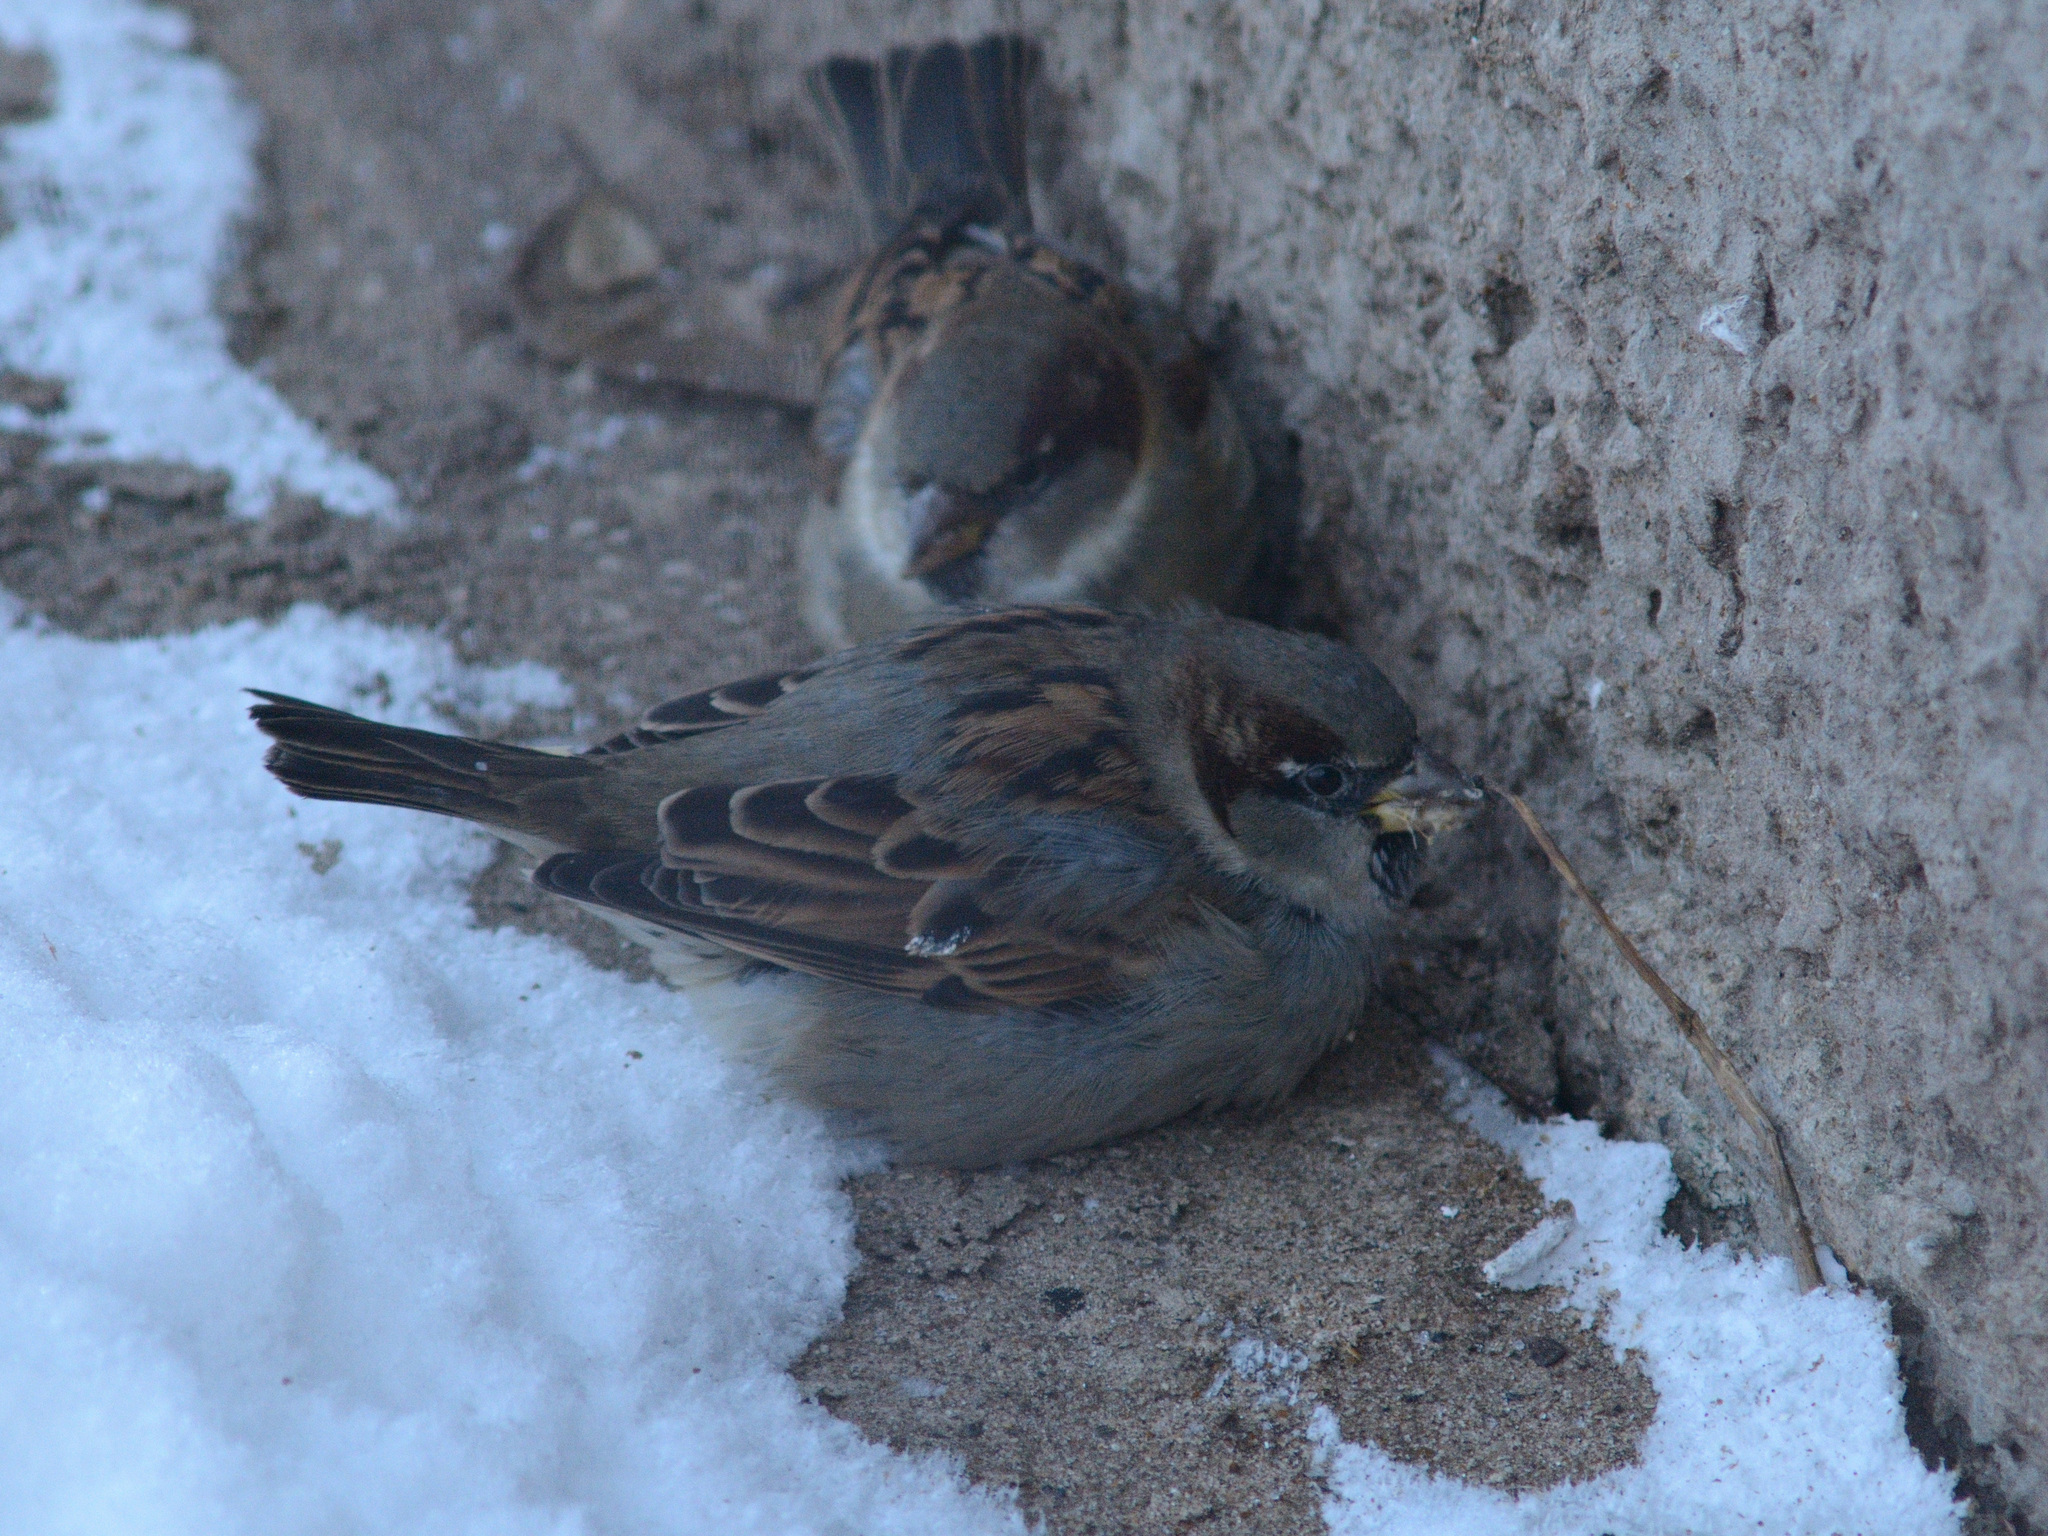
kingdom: Animalia
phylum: Chordata
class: Aves
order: Passeriformes
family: Passeridae
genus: Passer
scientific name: Passer domesticus
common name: House sparrow
